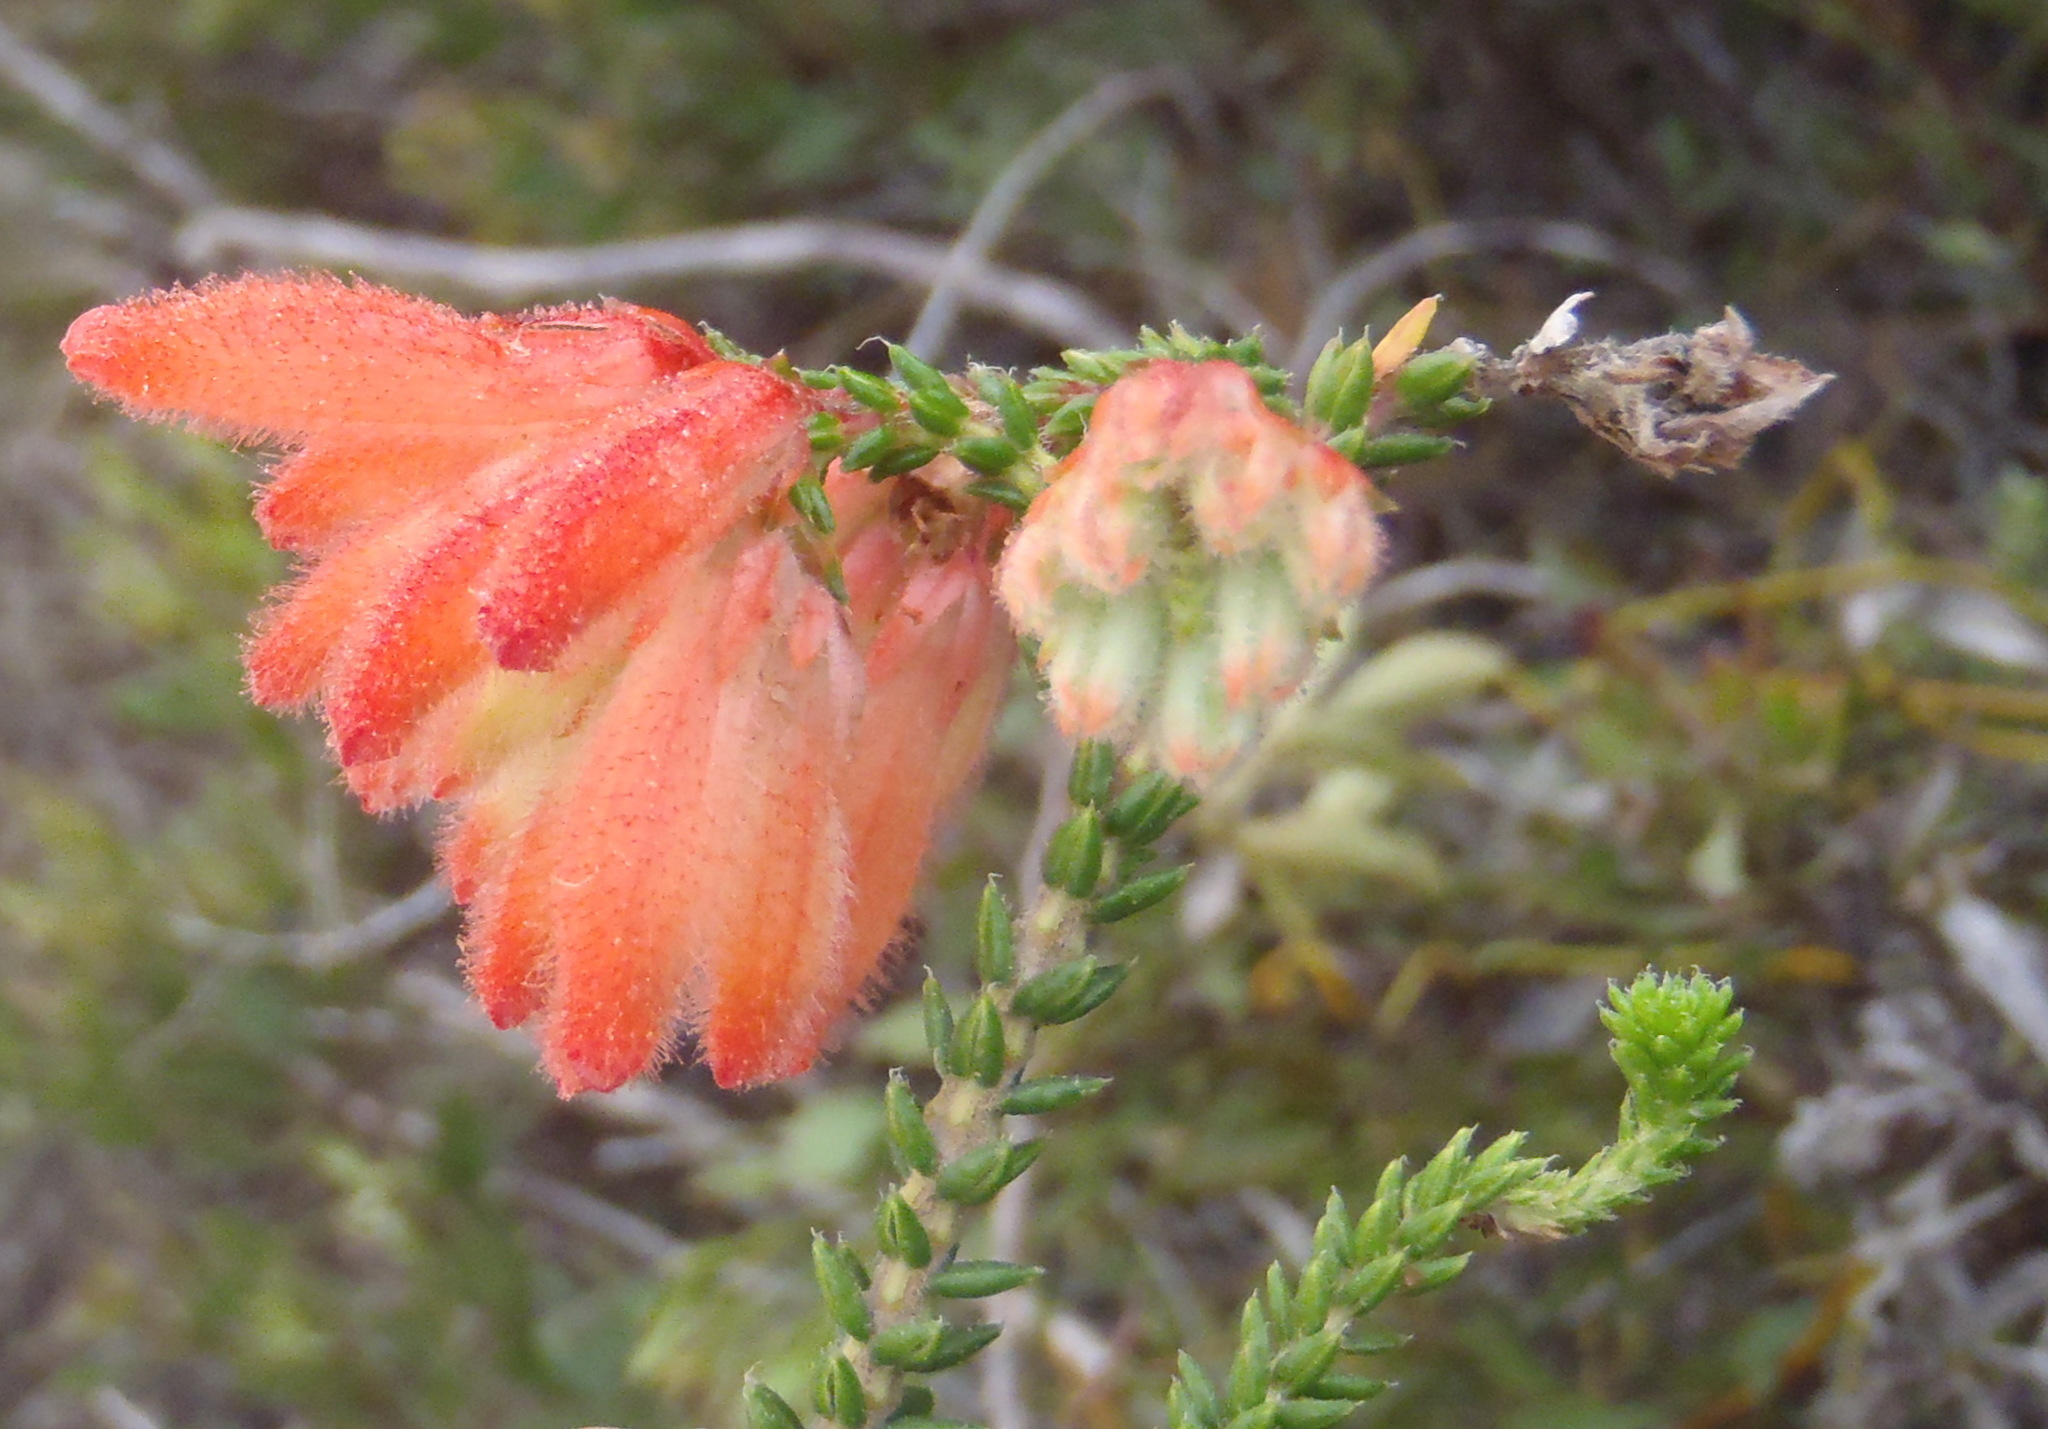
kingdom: Plantae
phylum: Tracheophyta
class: Magnoliopsida
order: Ericales
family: Ericaceae
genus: Erica
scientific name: Erica cerinthoides
